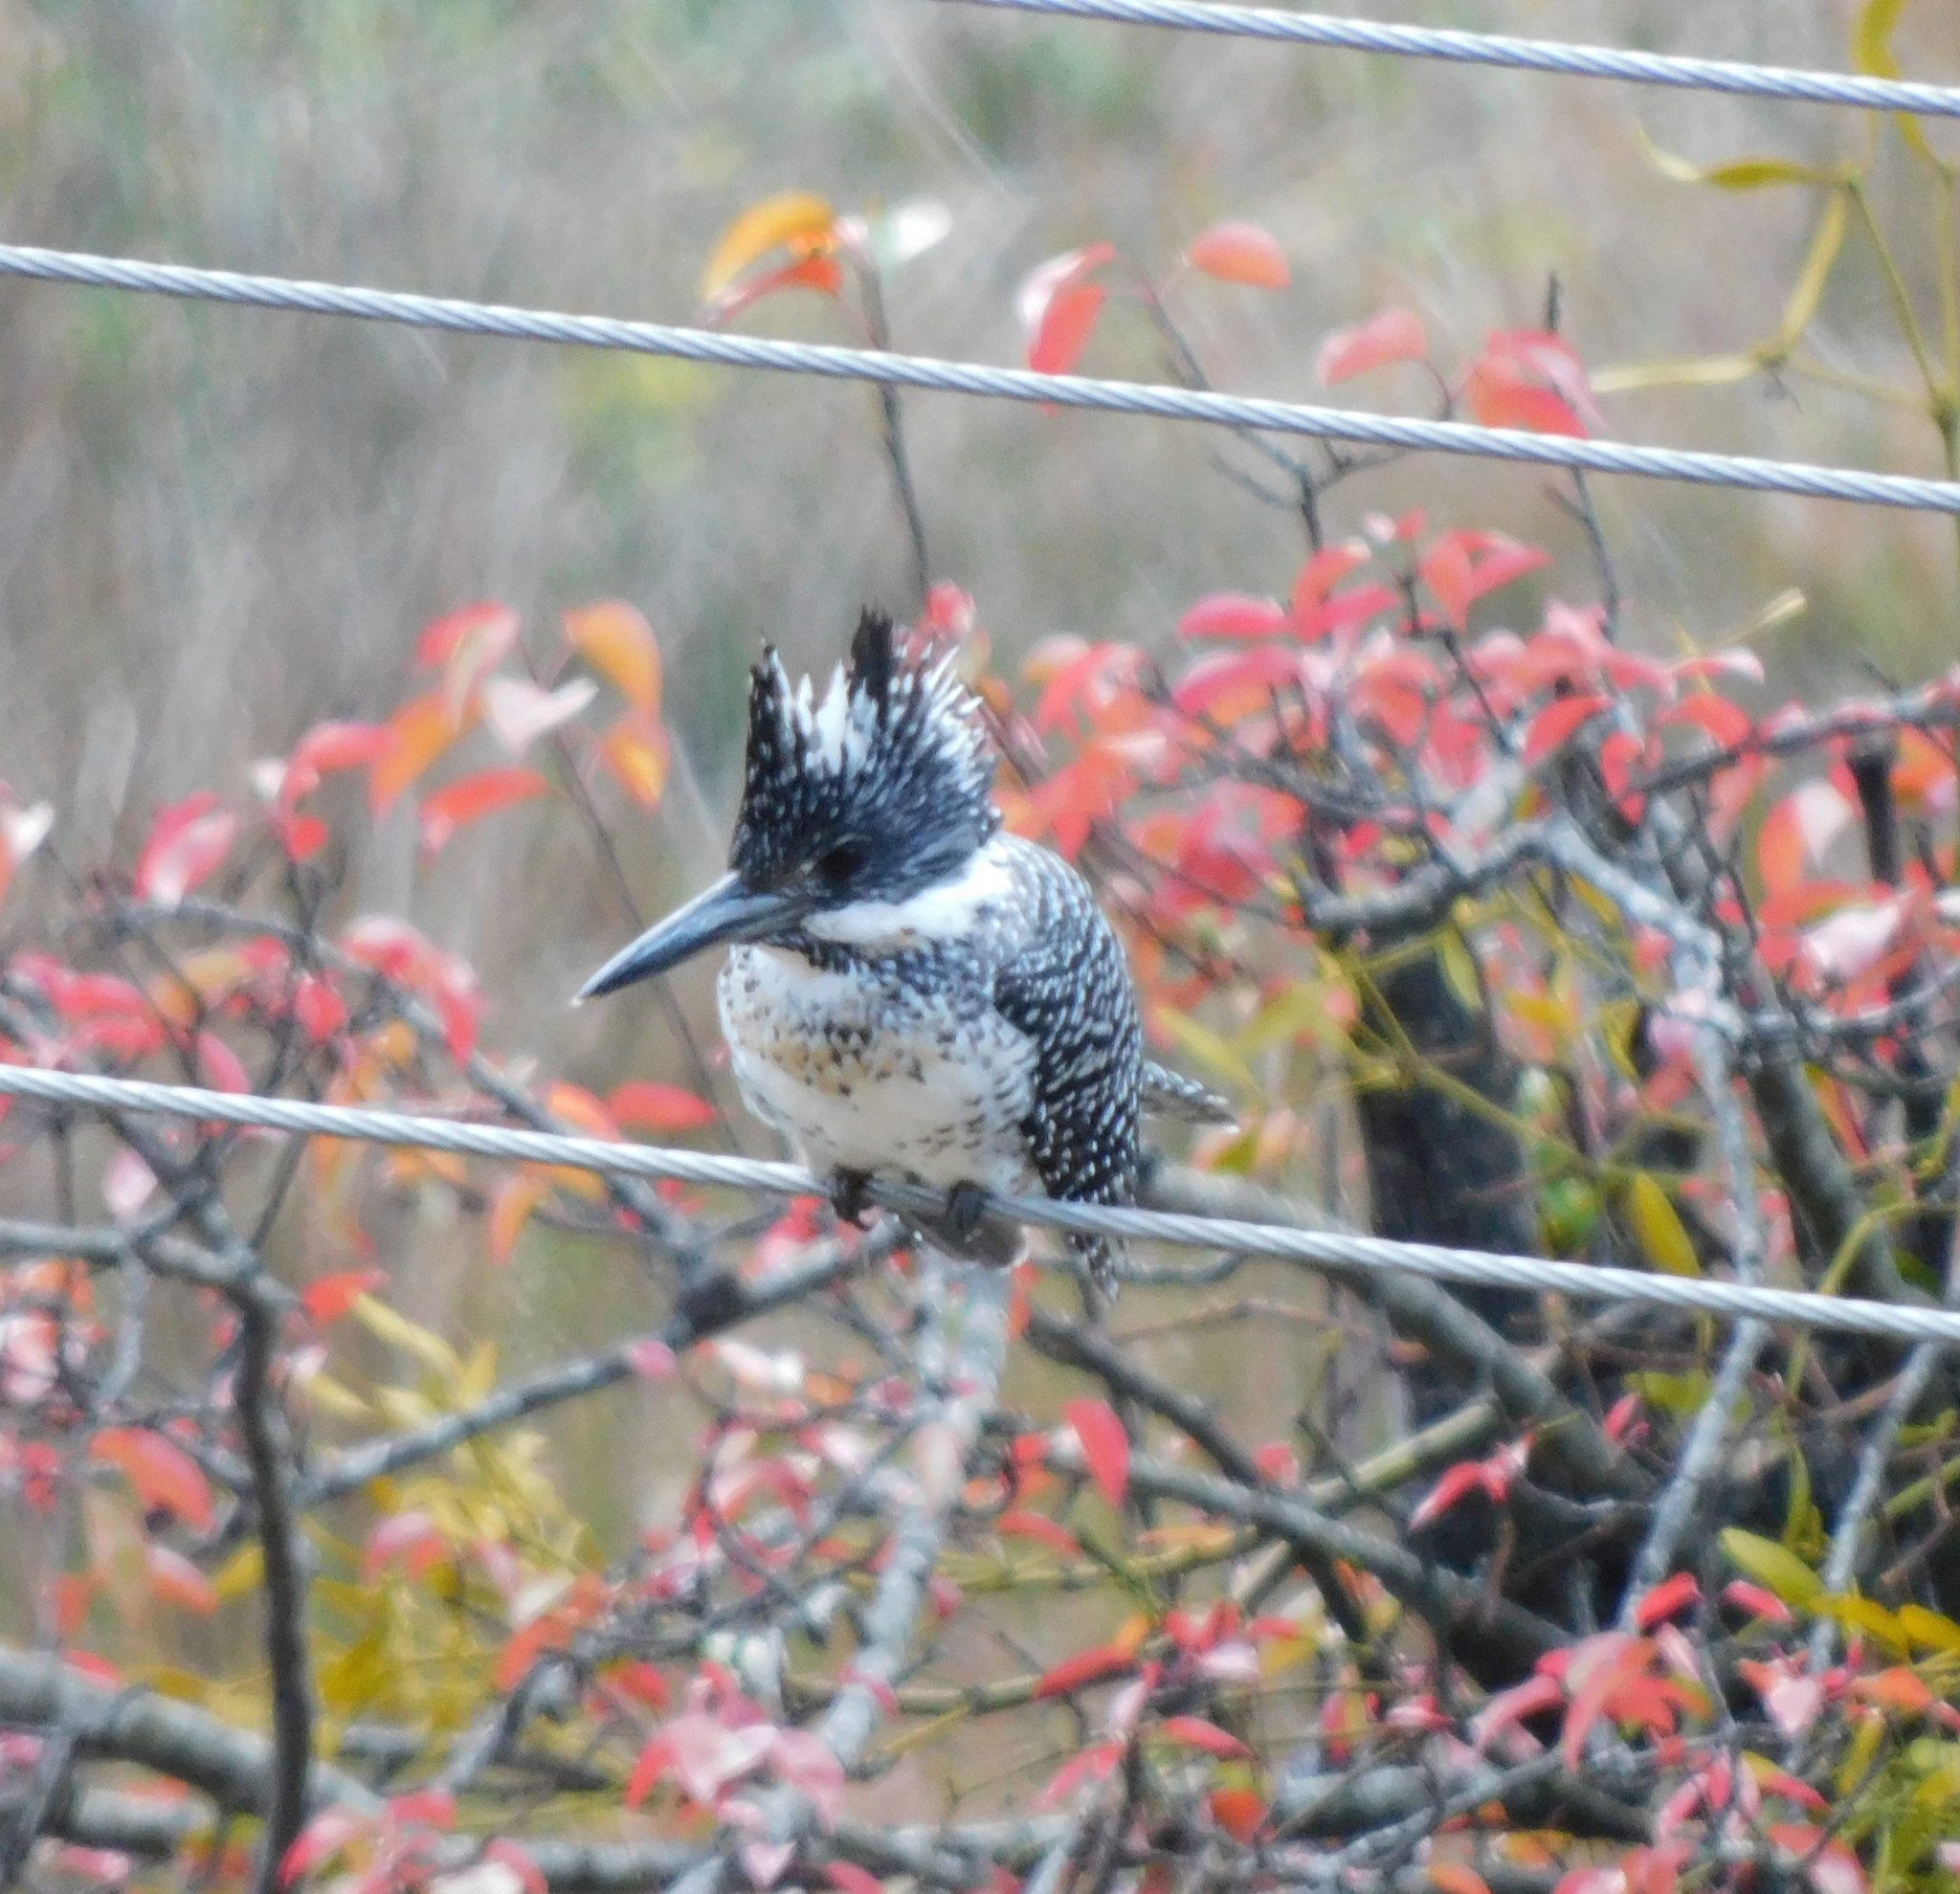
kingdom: Animalia
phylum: Chordata
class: Aves
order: Coraciiformes
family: Alcedinidae
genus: Megaceryle
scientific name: Megaceryle lugubris
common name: Crested kingfisher
